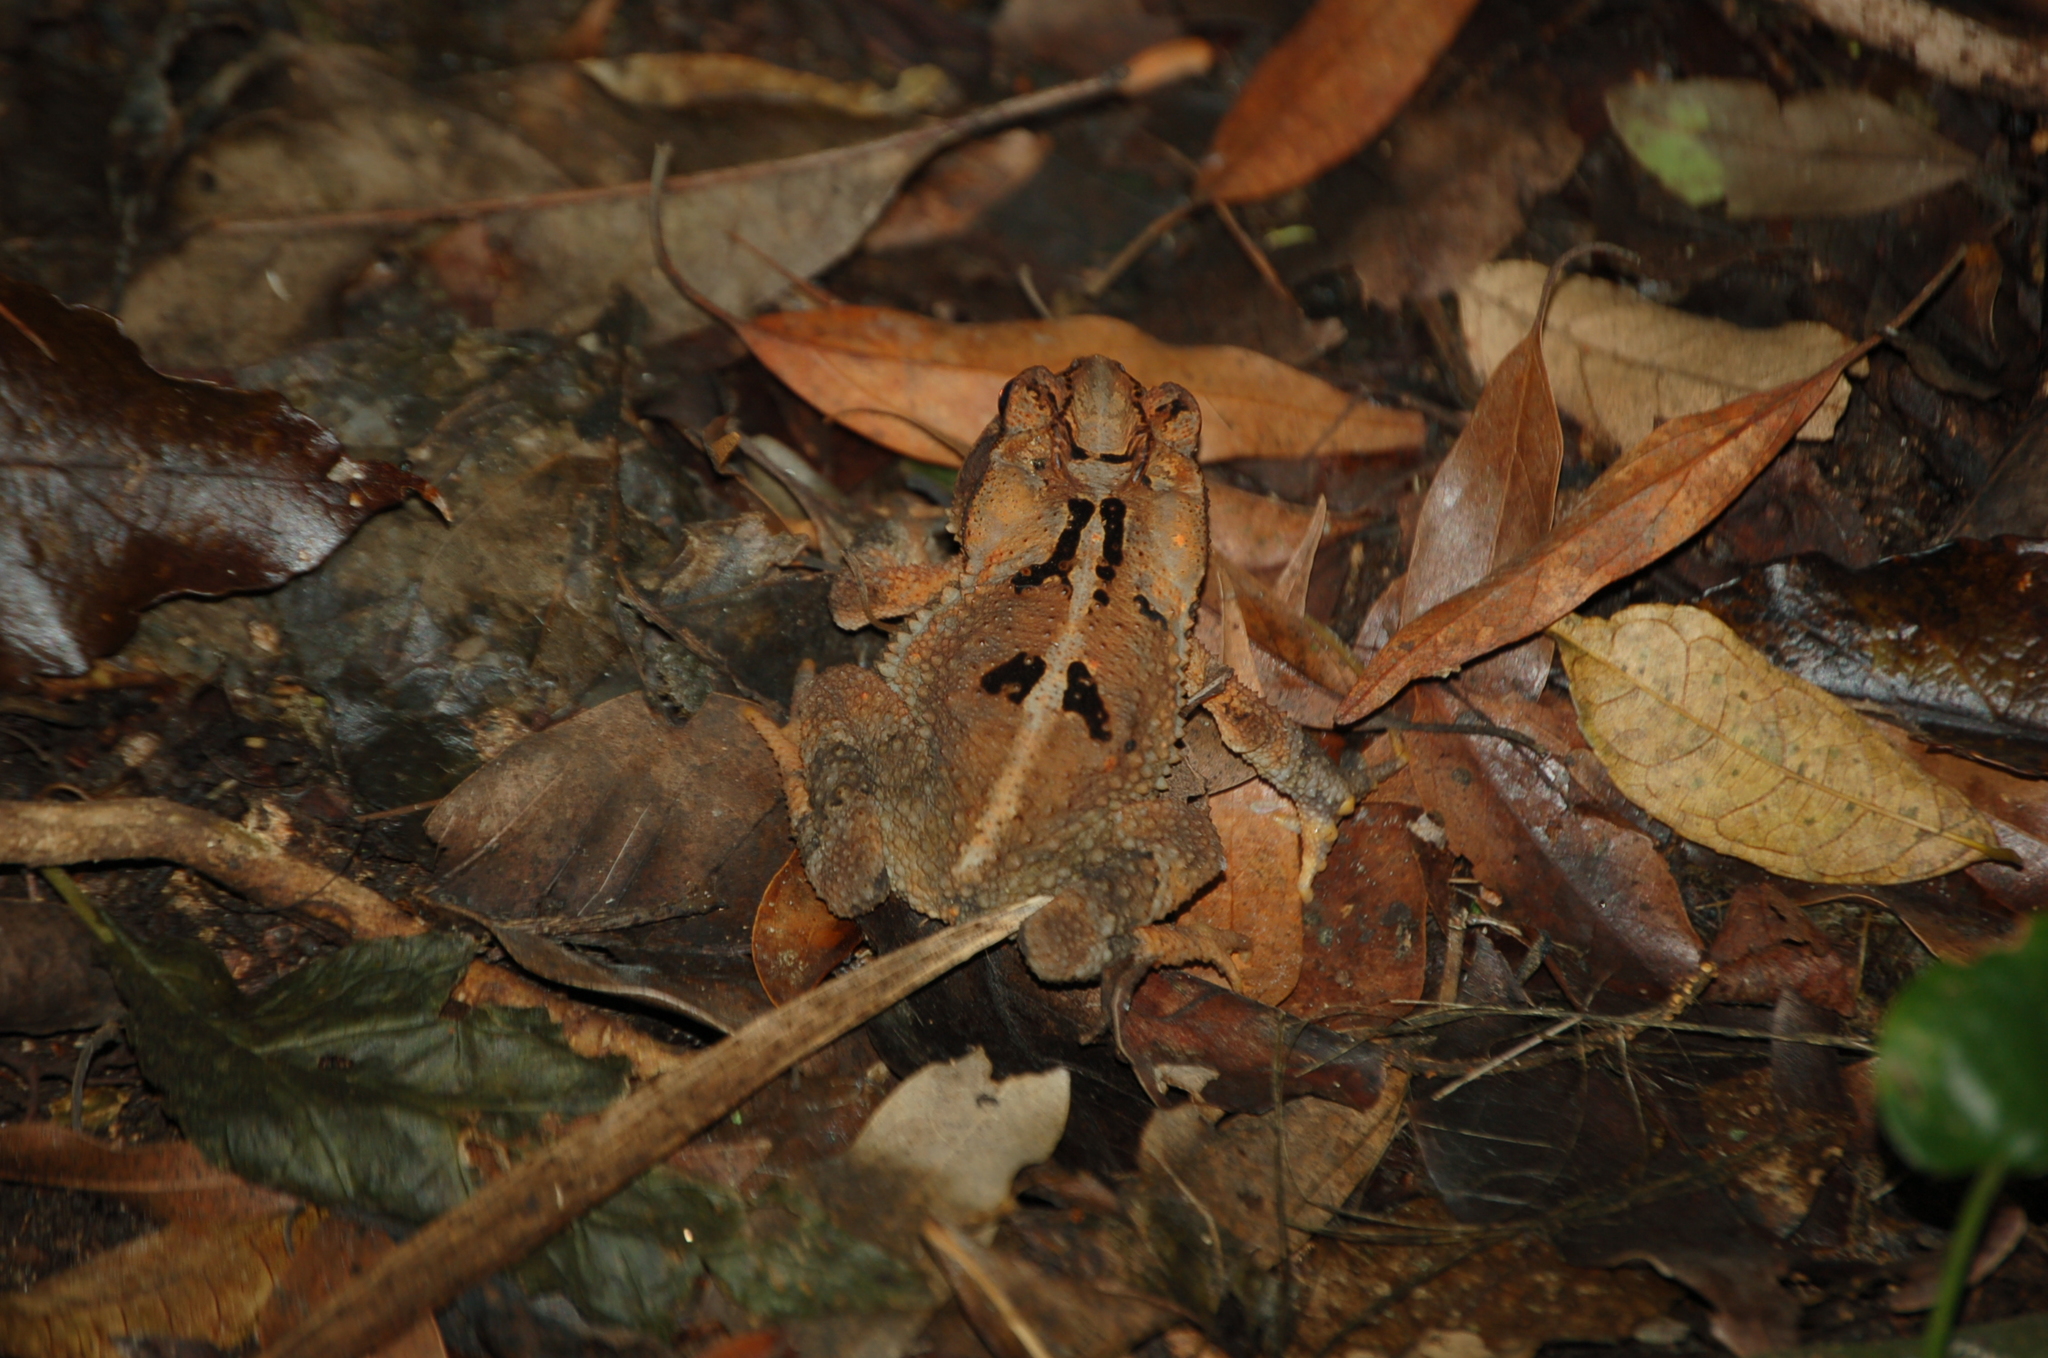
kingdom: Animalia
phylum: Chordata
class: Amphibia
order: Anura
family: Bufonidae
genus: Incilius
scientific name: Incilius macrocristatus
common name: Huge-crested toad
